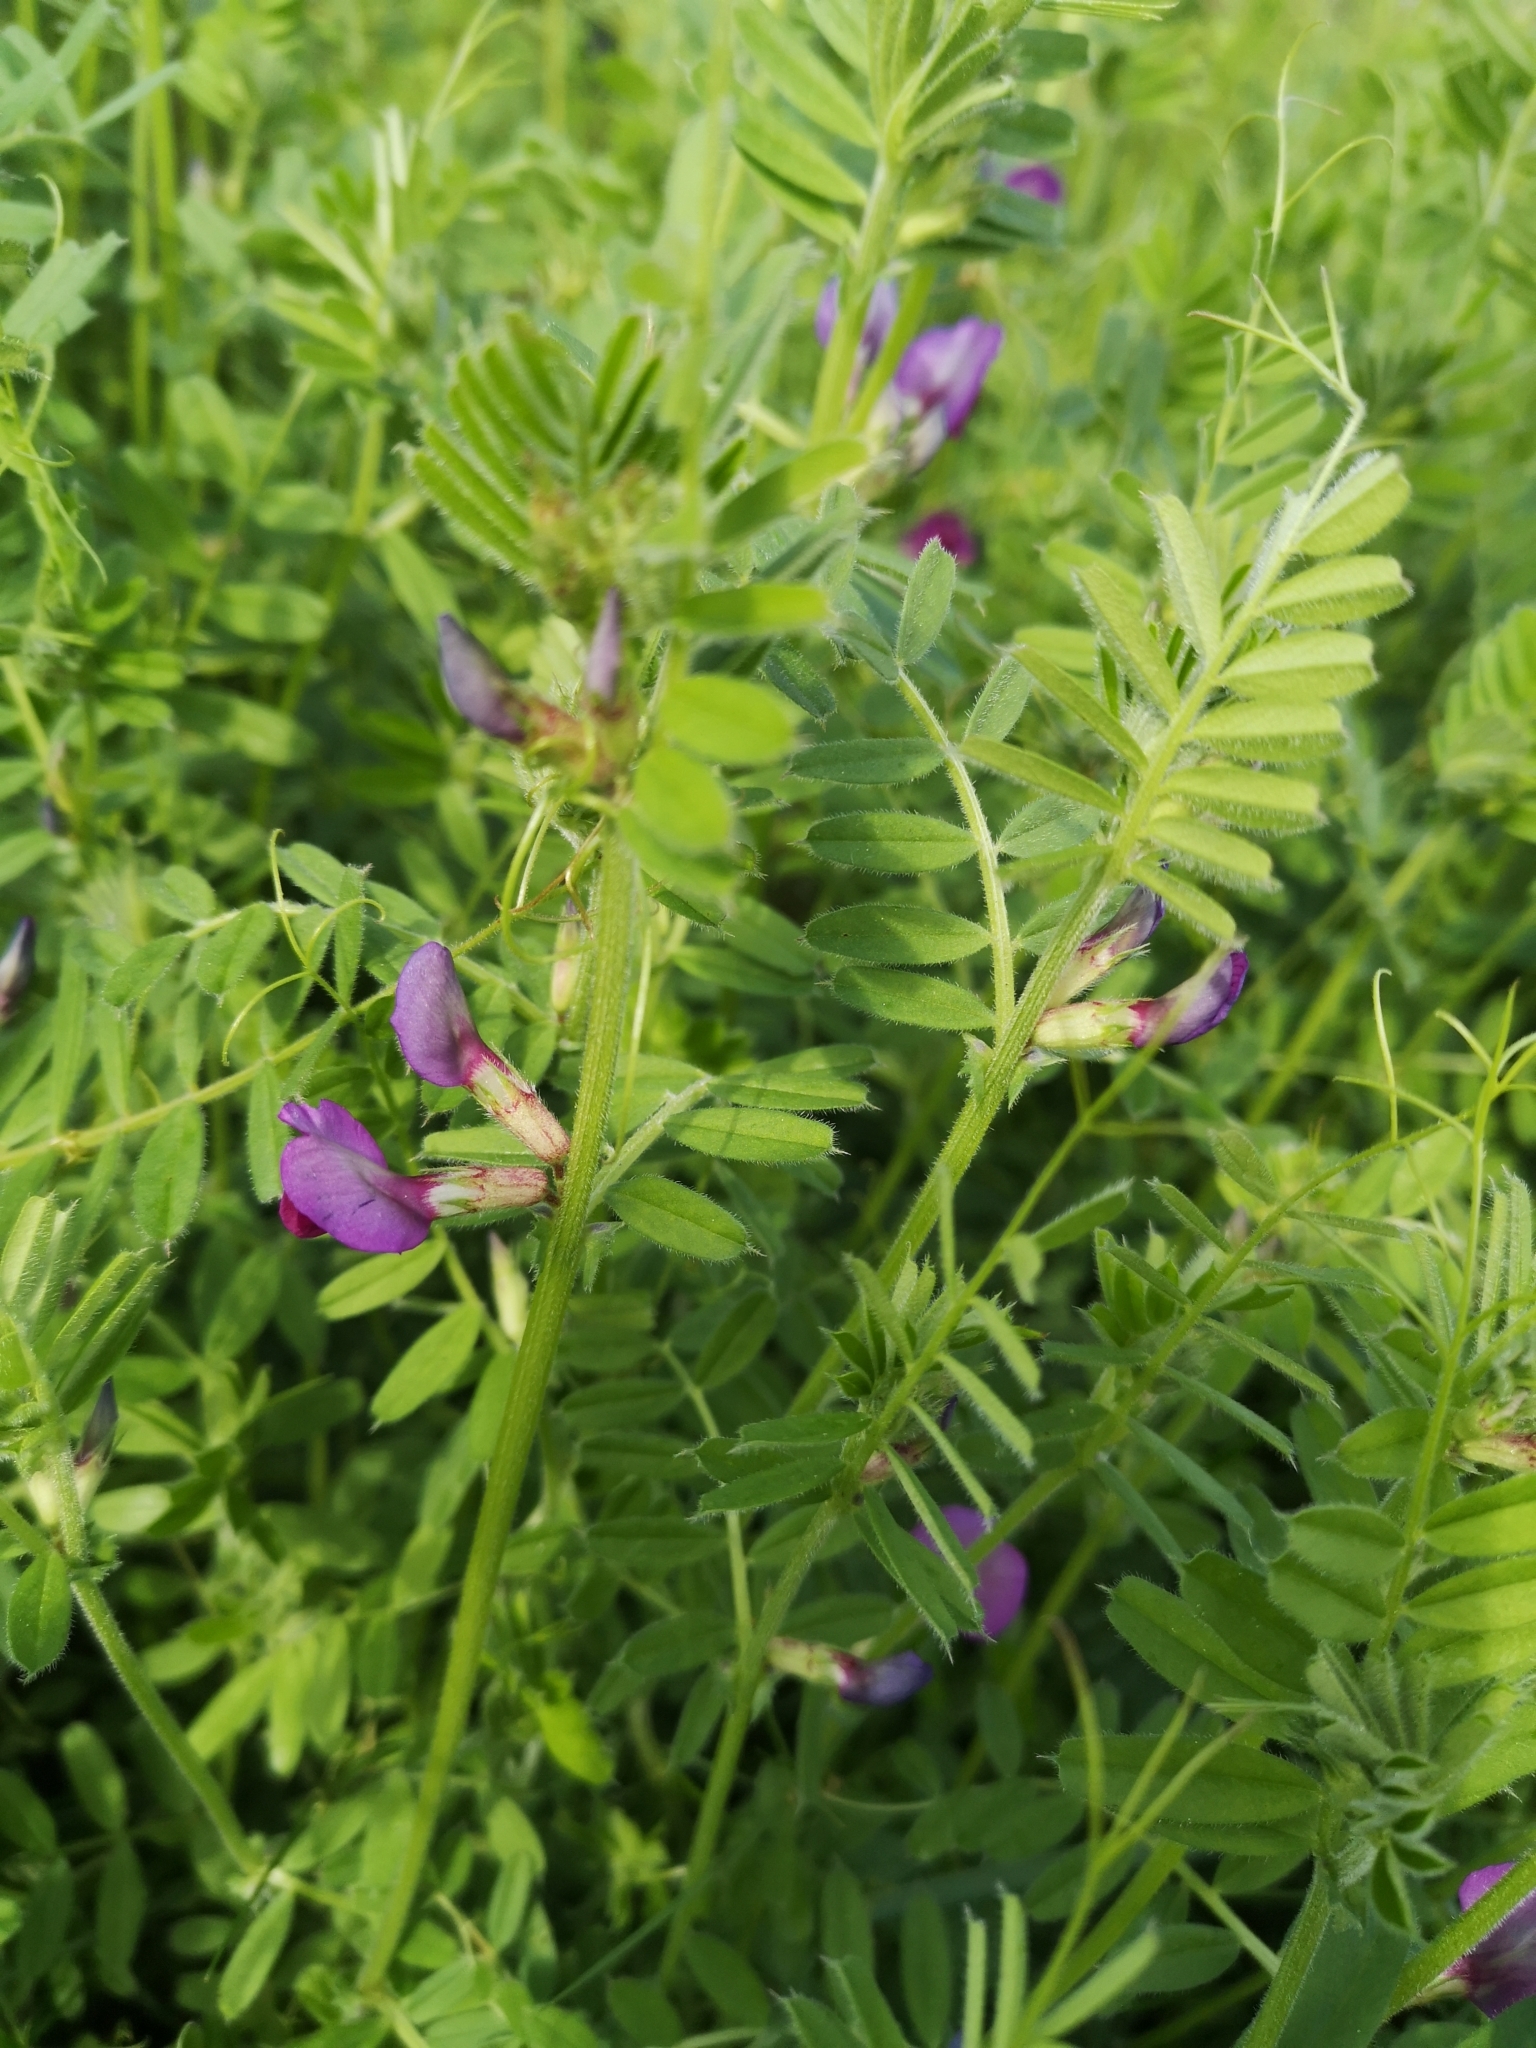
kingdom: Plantae
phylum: Tracheophyta
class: Magnoliopsida
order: Fabales
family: Fabaceae
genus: Vicia
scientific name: Vicia sativa
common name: Garden vetch
